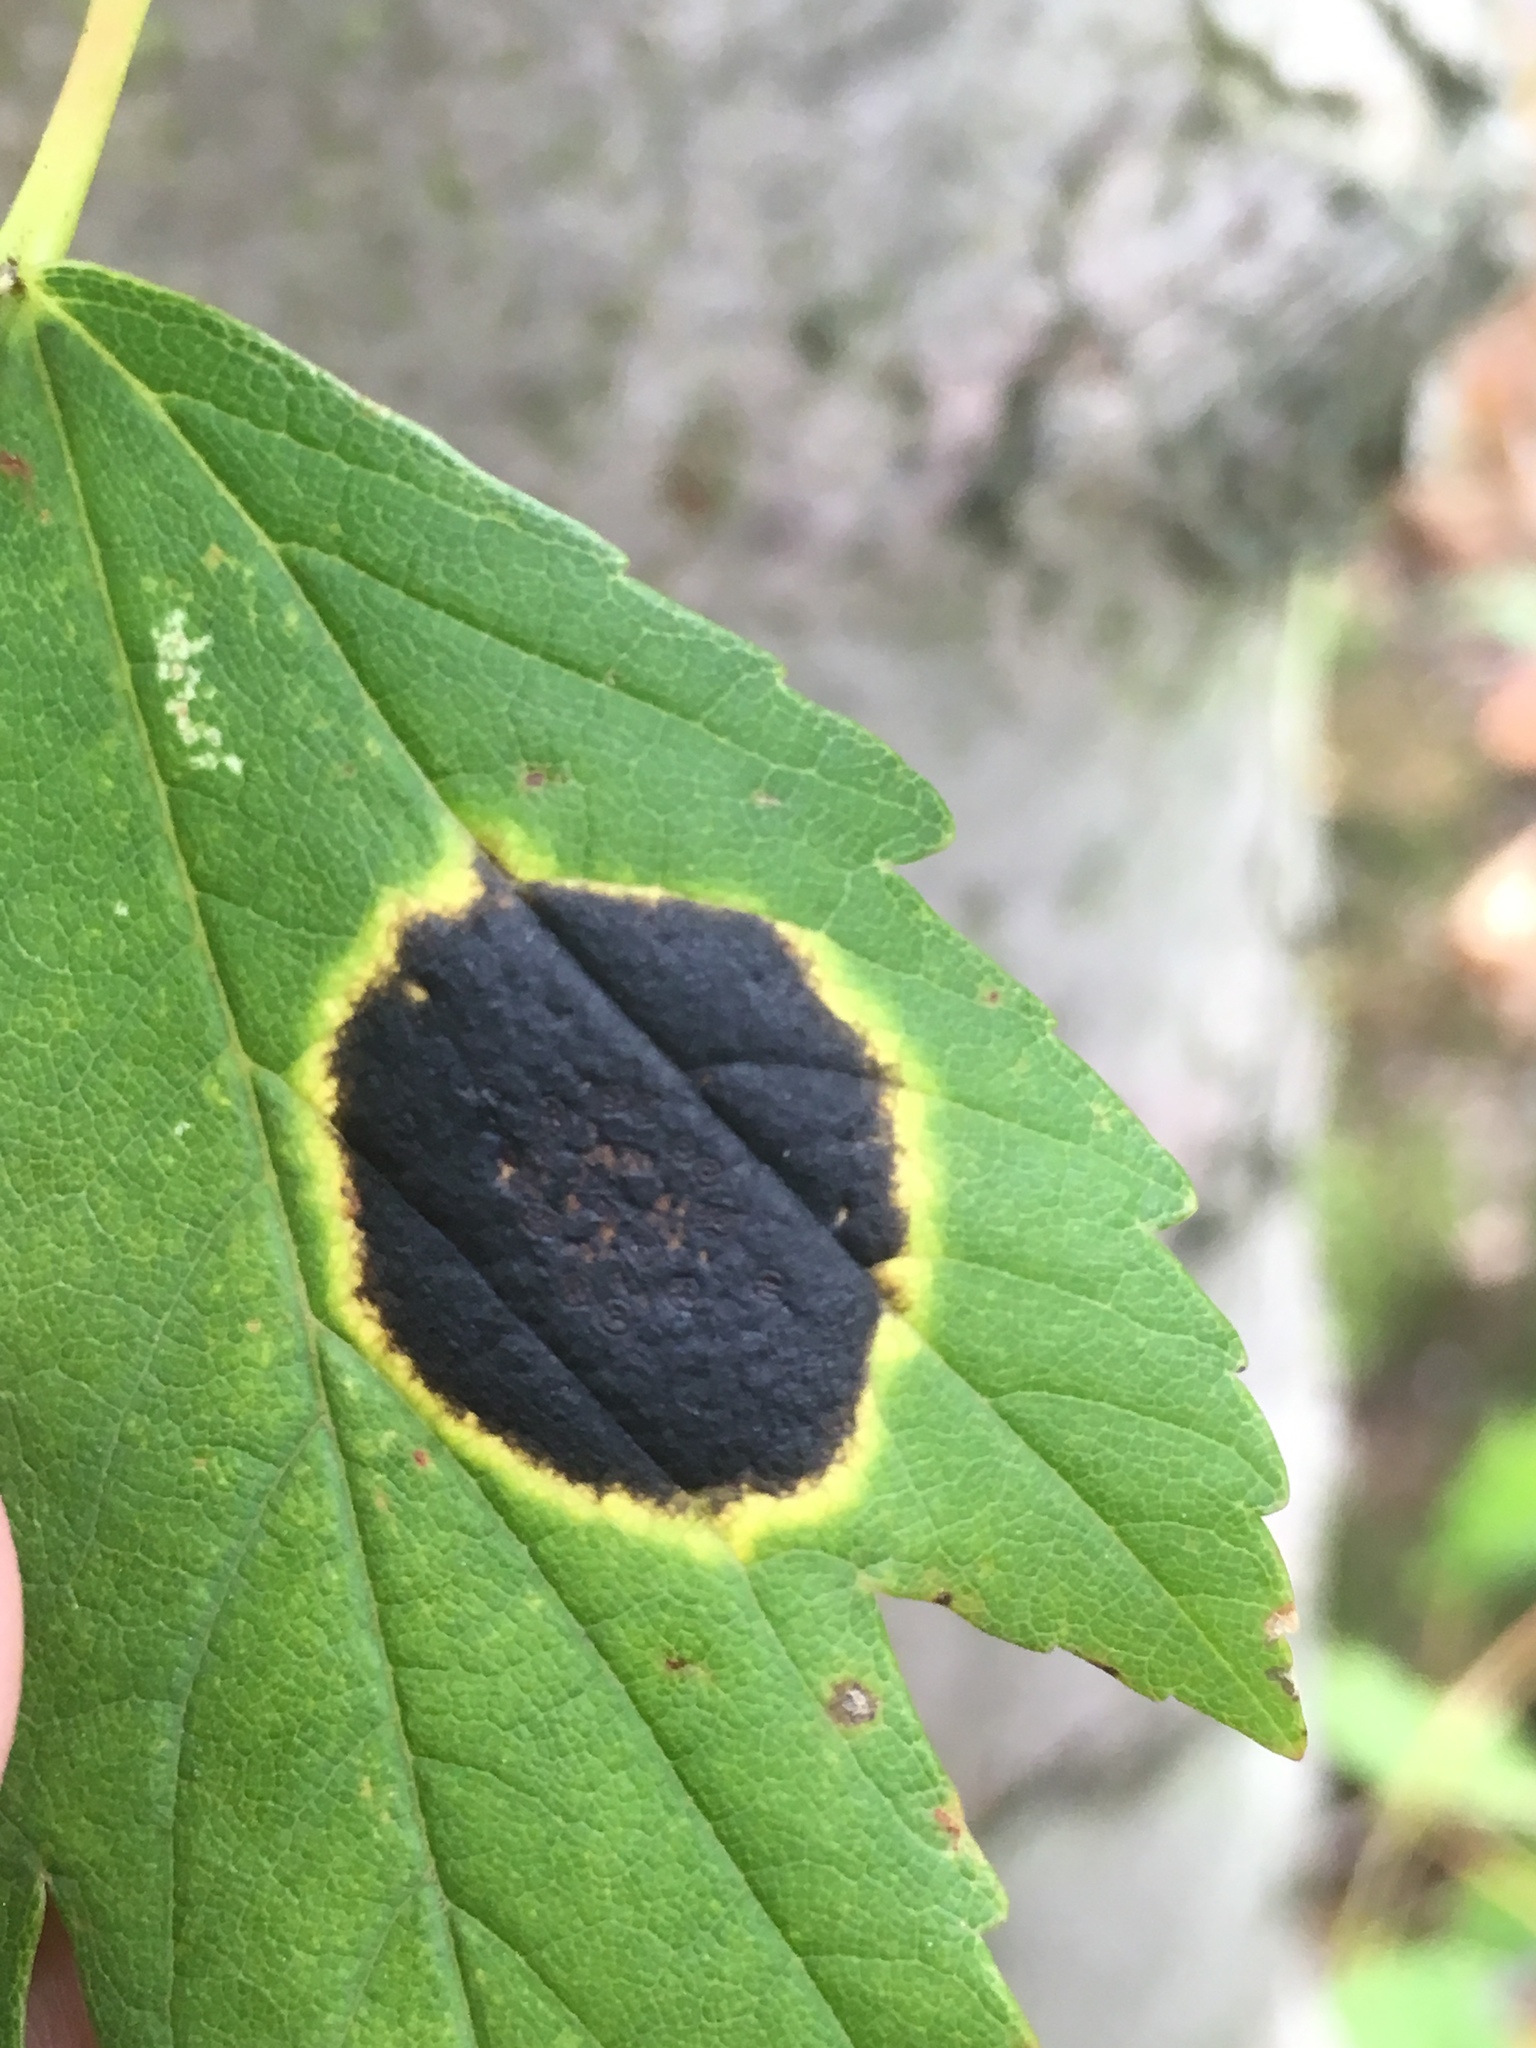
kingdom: Fungi
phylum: Ascomycota
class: Leotiomycetes
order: Rhytismatales
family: Rhytismataceae
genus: Rhytisma
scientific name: Rhytisma acerinum
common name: European tar spot
